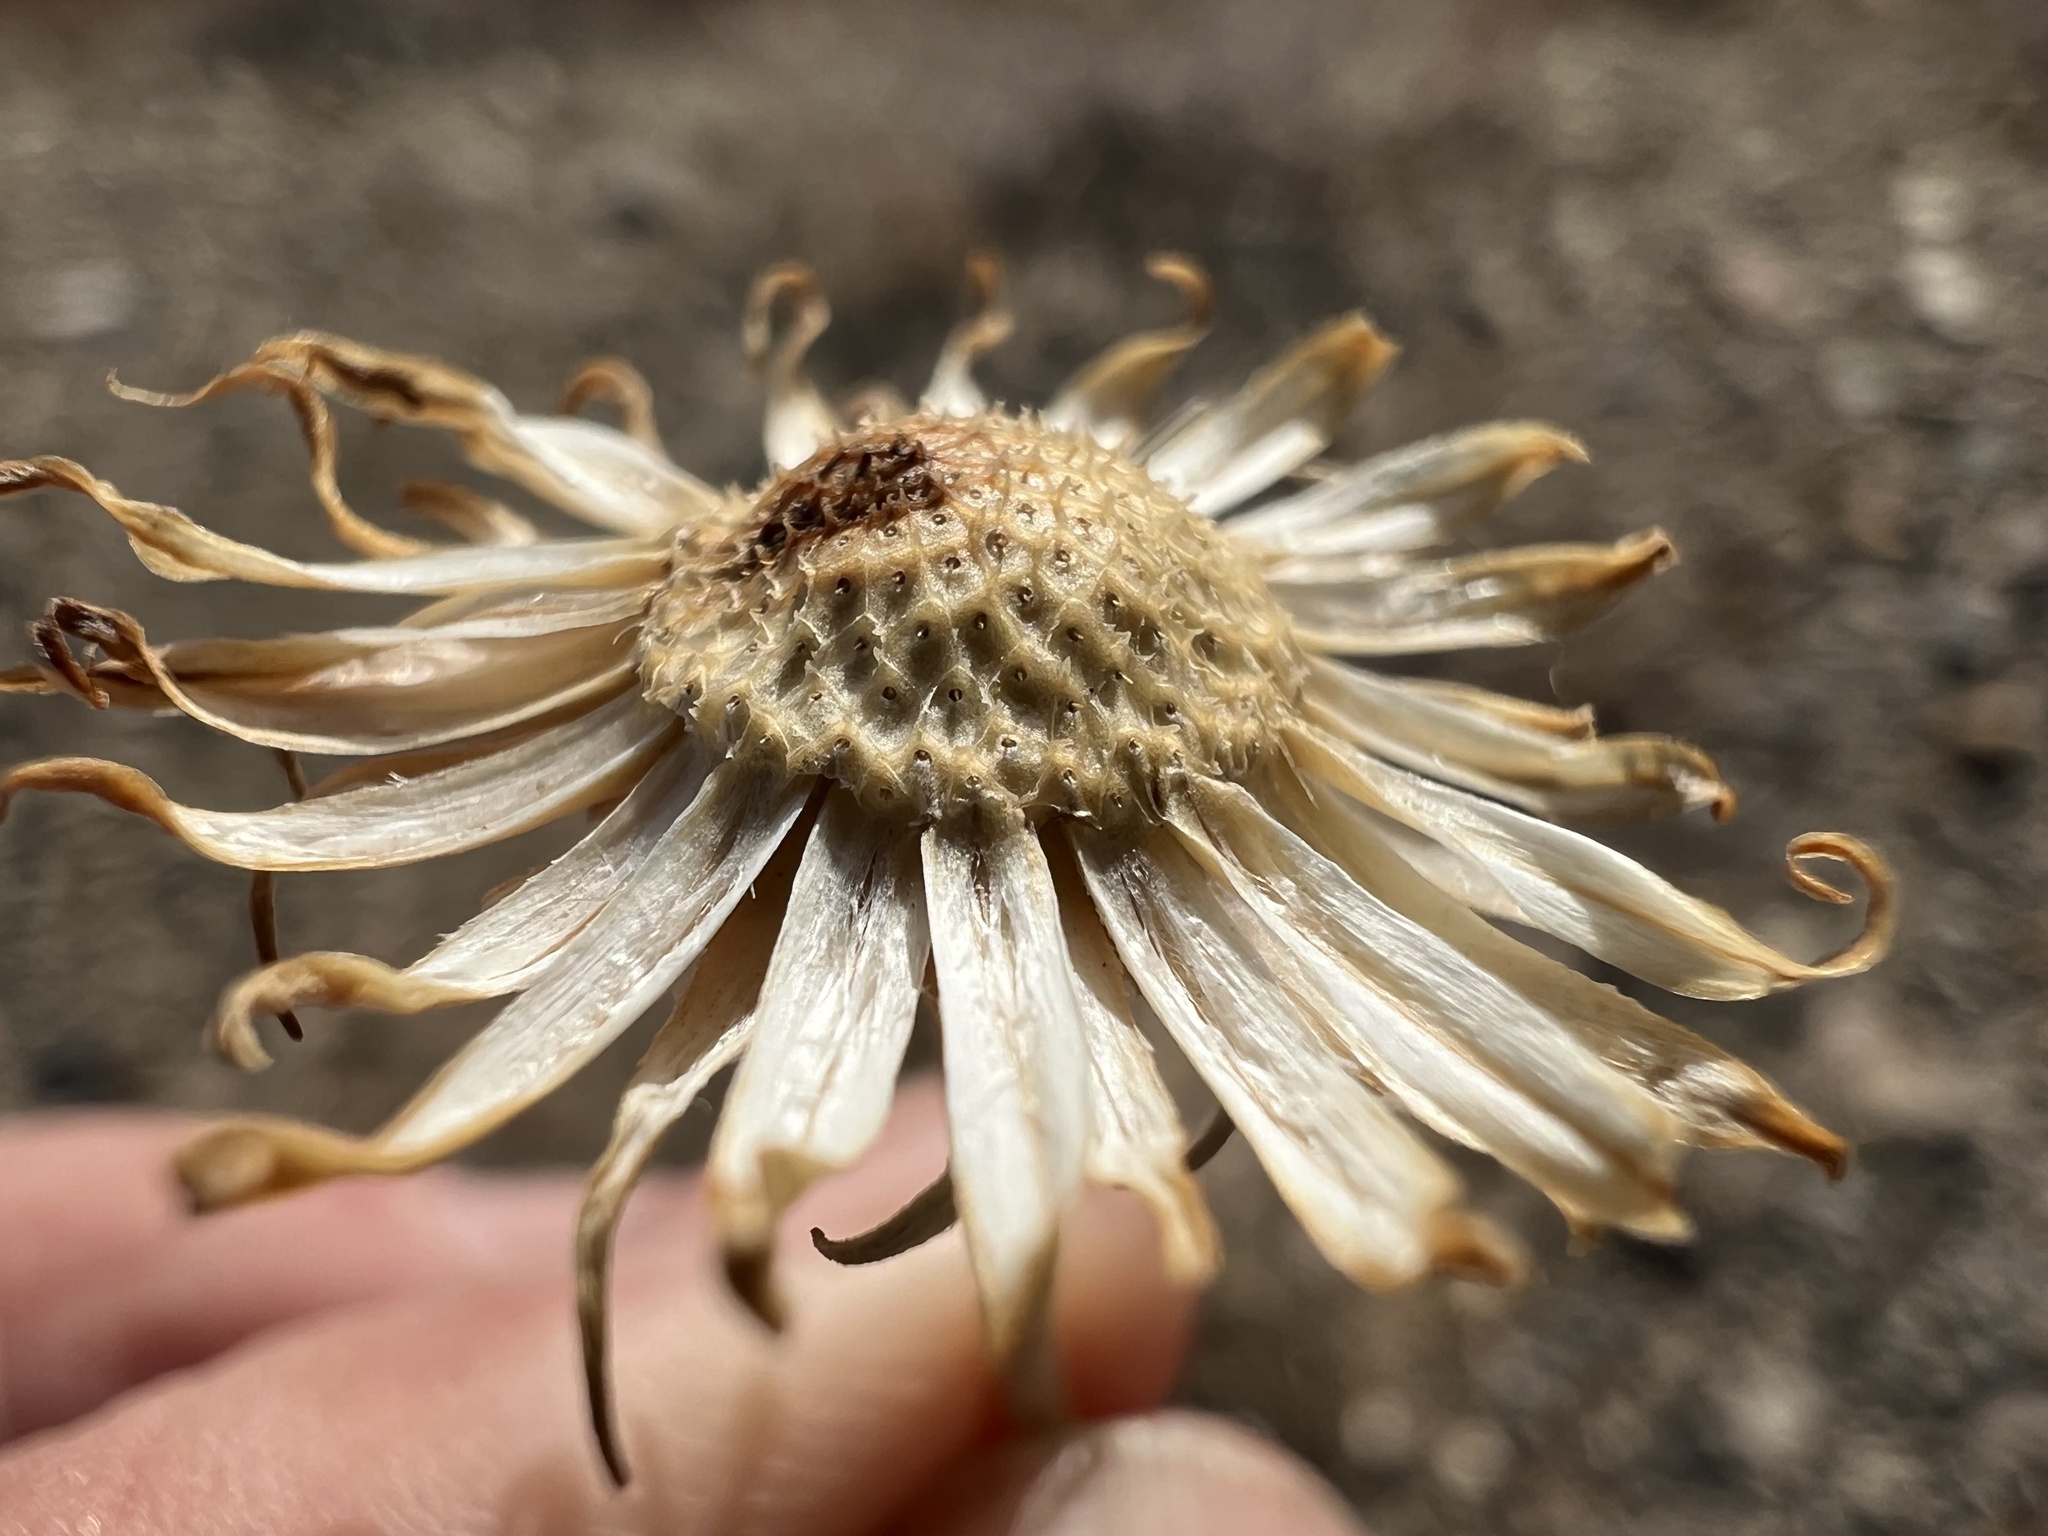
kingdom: Plantae
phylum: Tracheophyta
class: Magnoliopsida
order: Asterales
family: Asteraceae
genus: Xylorhiza
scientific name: Xylorhiza tortifolia
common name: Hurt-leaf woody-aster
